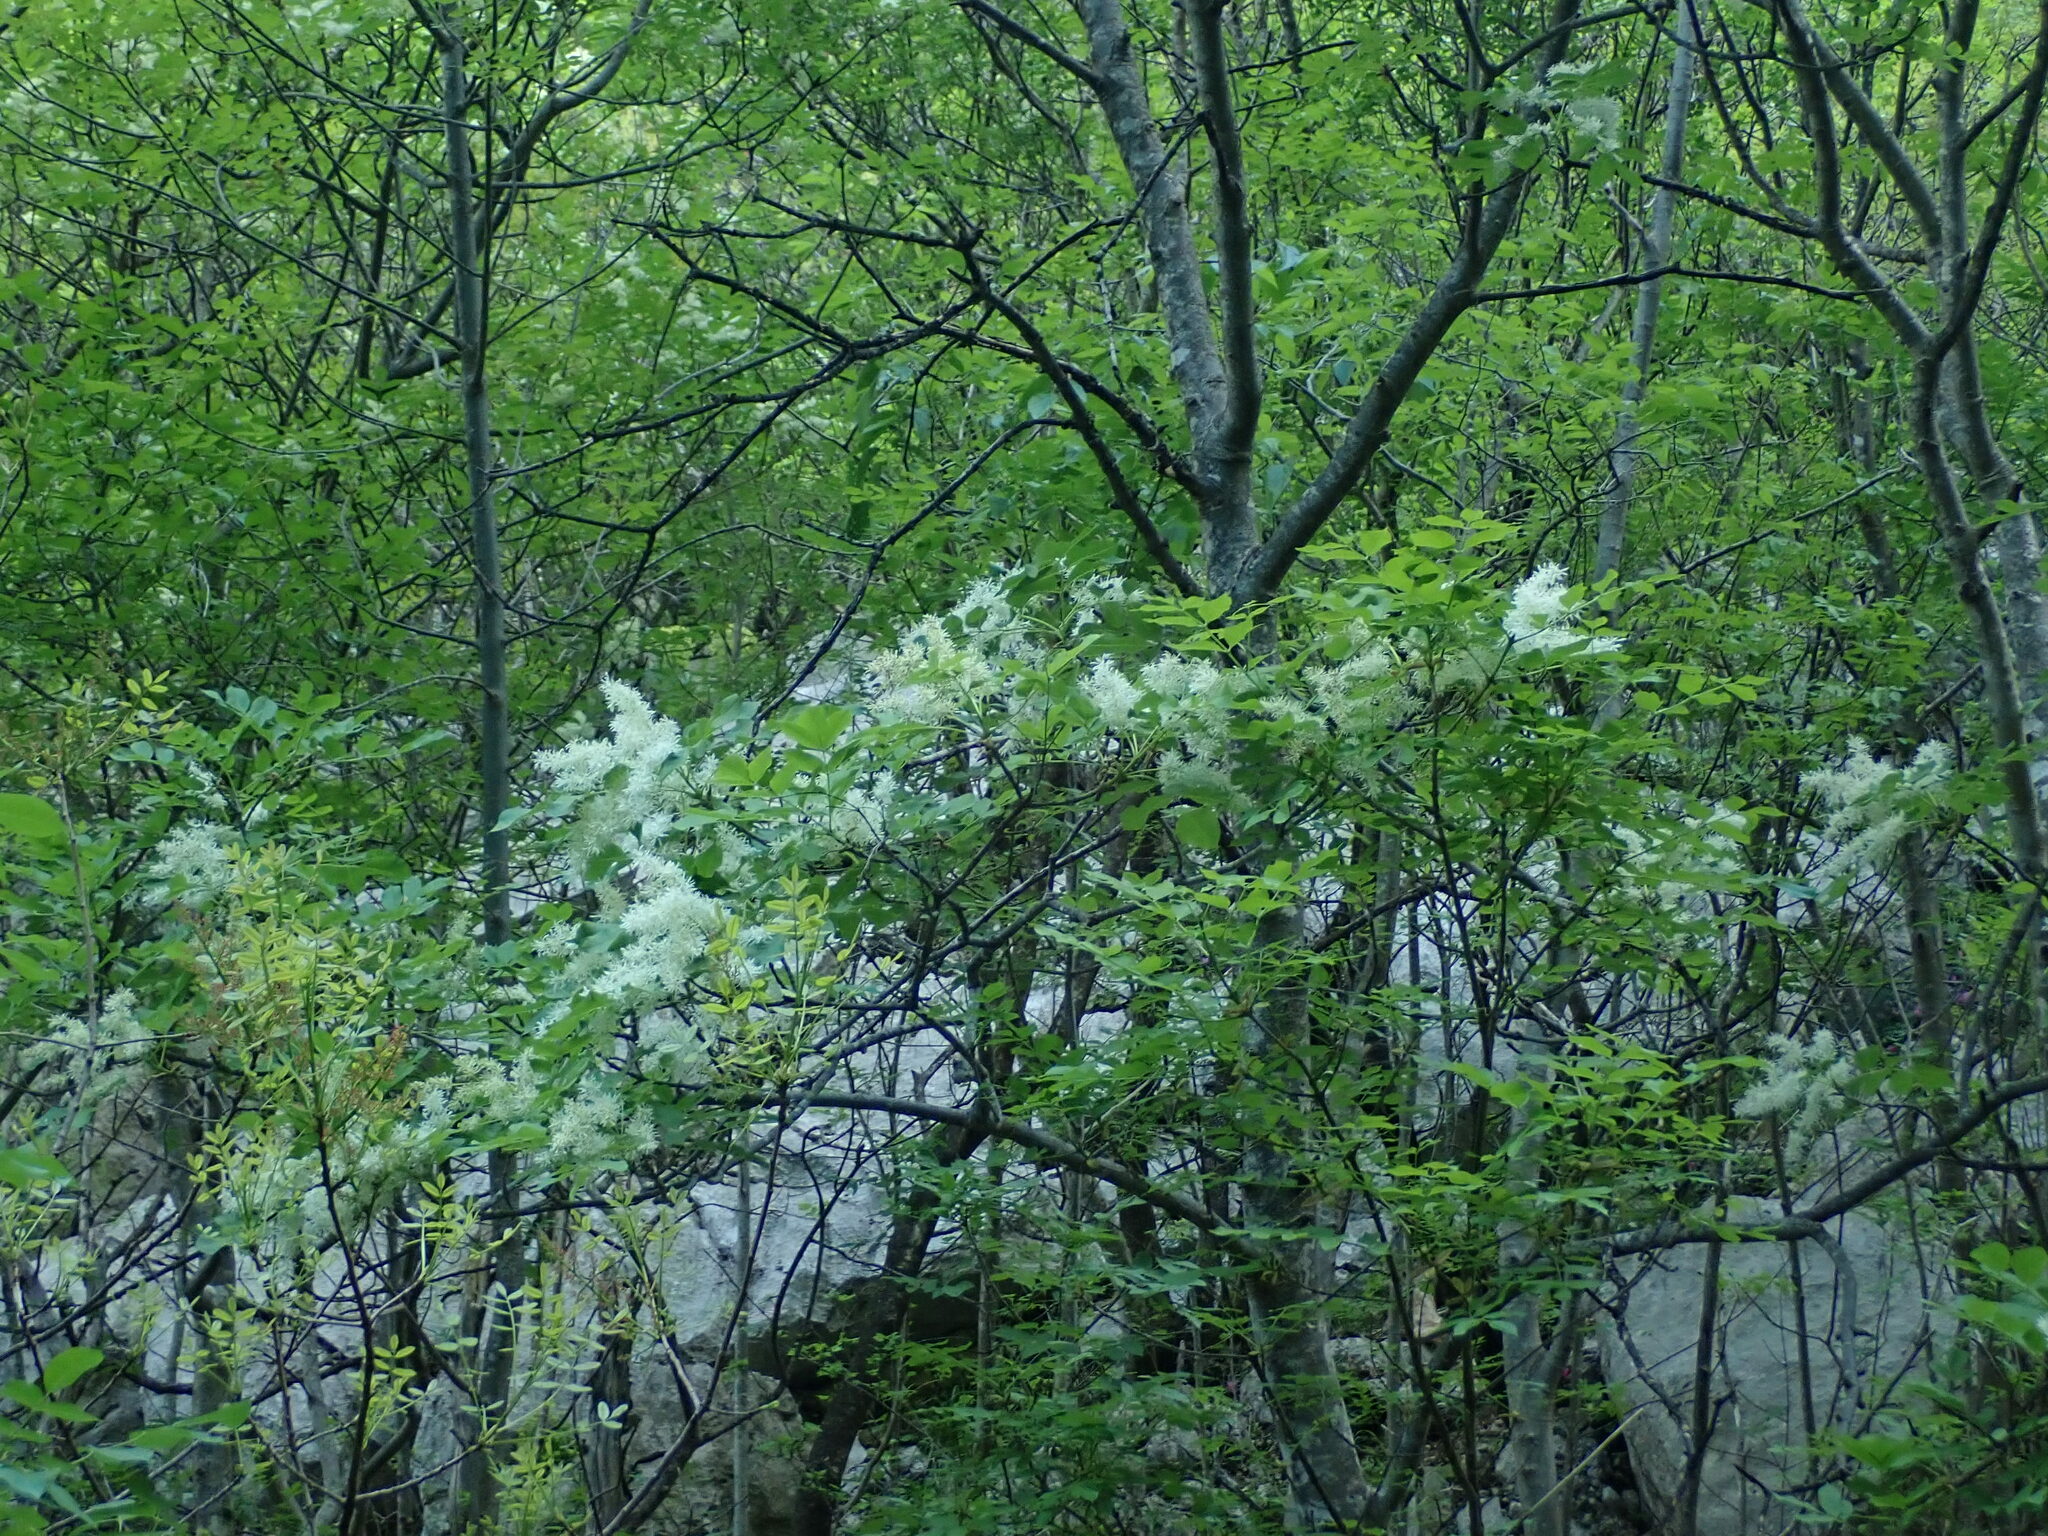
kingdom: Plantae
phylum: Tracheophyta
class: Magnoliopsida
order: Lamiales
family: Oleaceae
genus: Fraxinus
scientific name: Fraxinus ornus
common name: Manna ash
